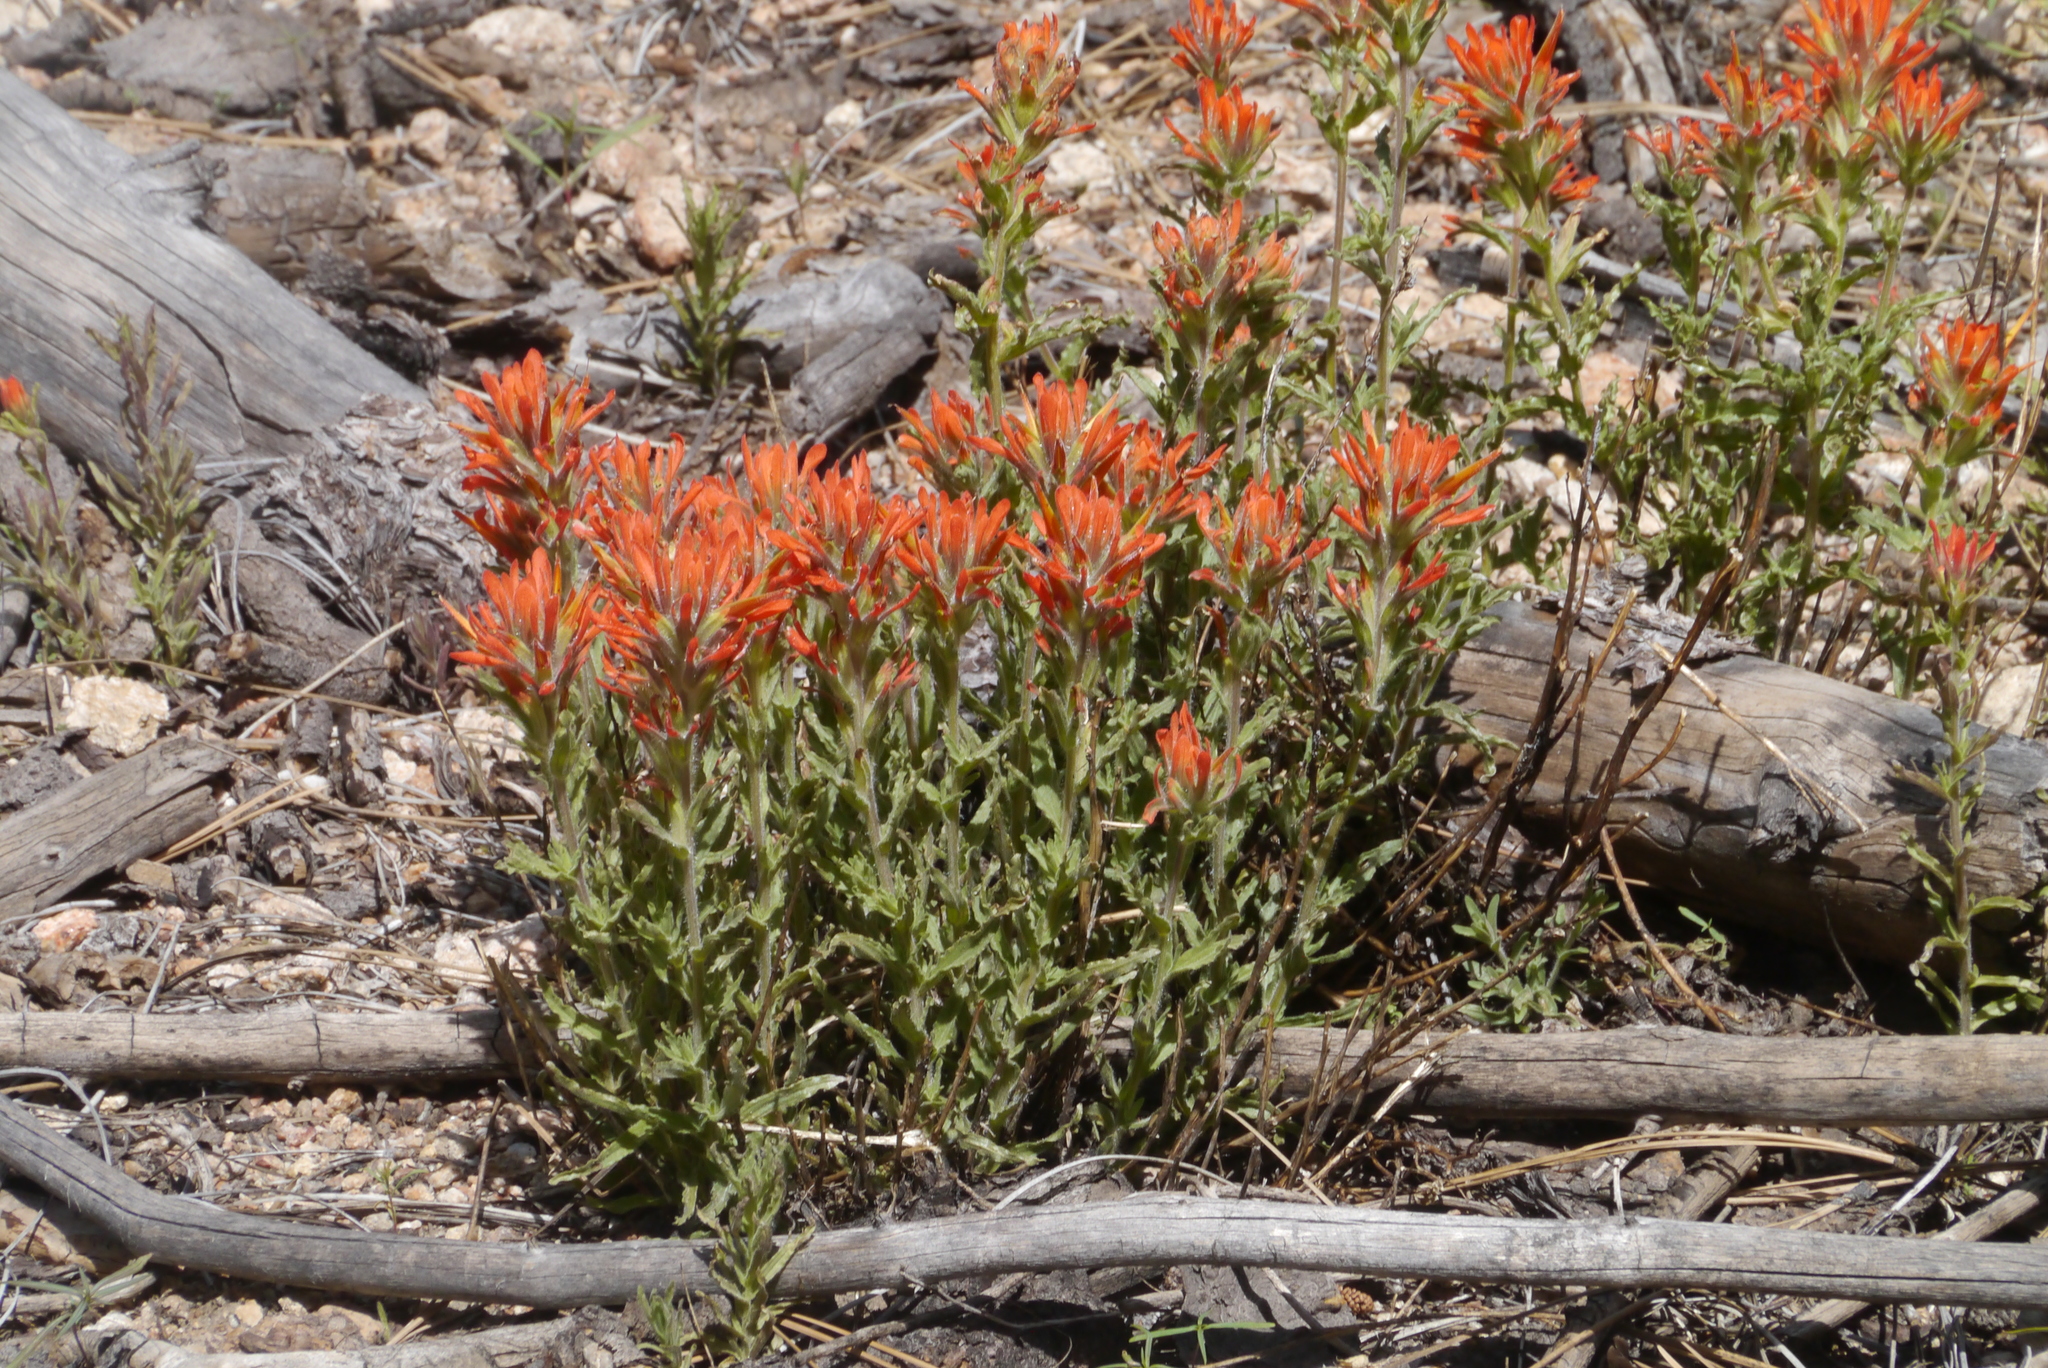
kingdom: Plantae
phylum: Tracheophyta
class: Magnoliopsida
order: Lamiales
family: Orobanchaceae
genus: Castilleja
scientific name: Castilleja applegatei
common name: Wavy-leaf paintbrush
